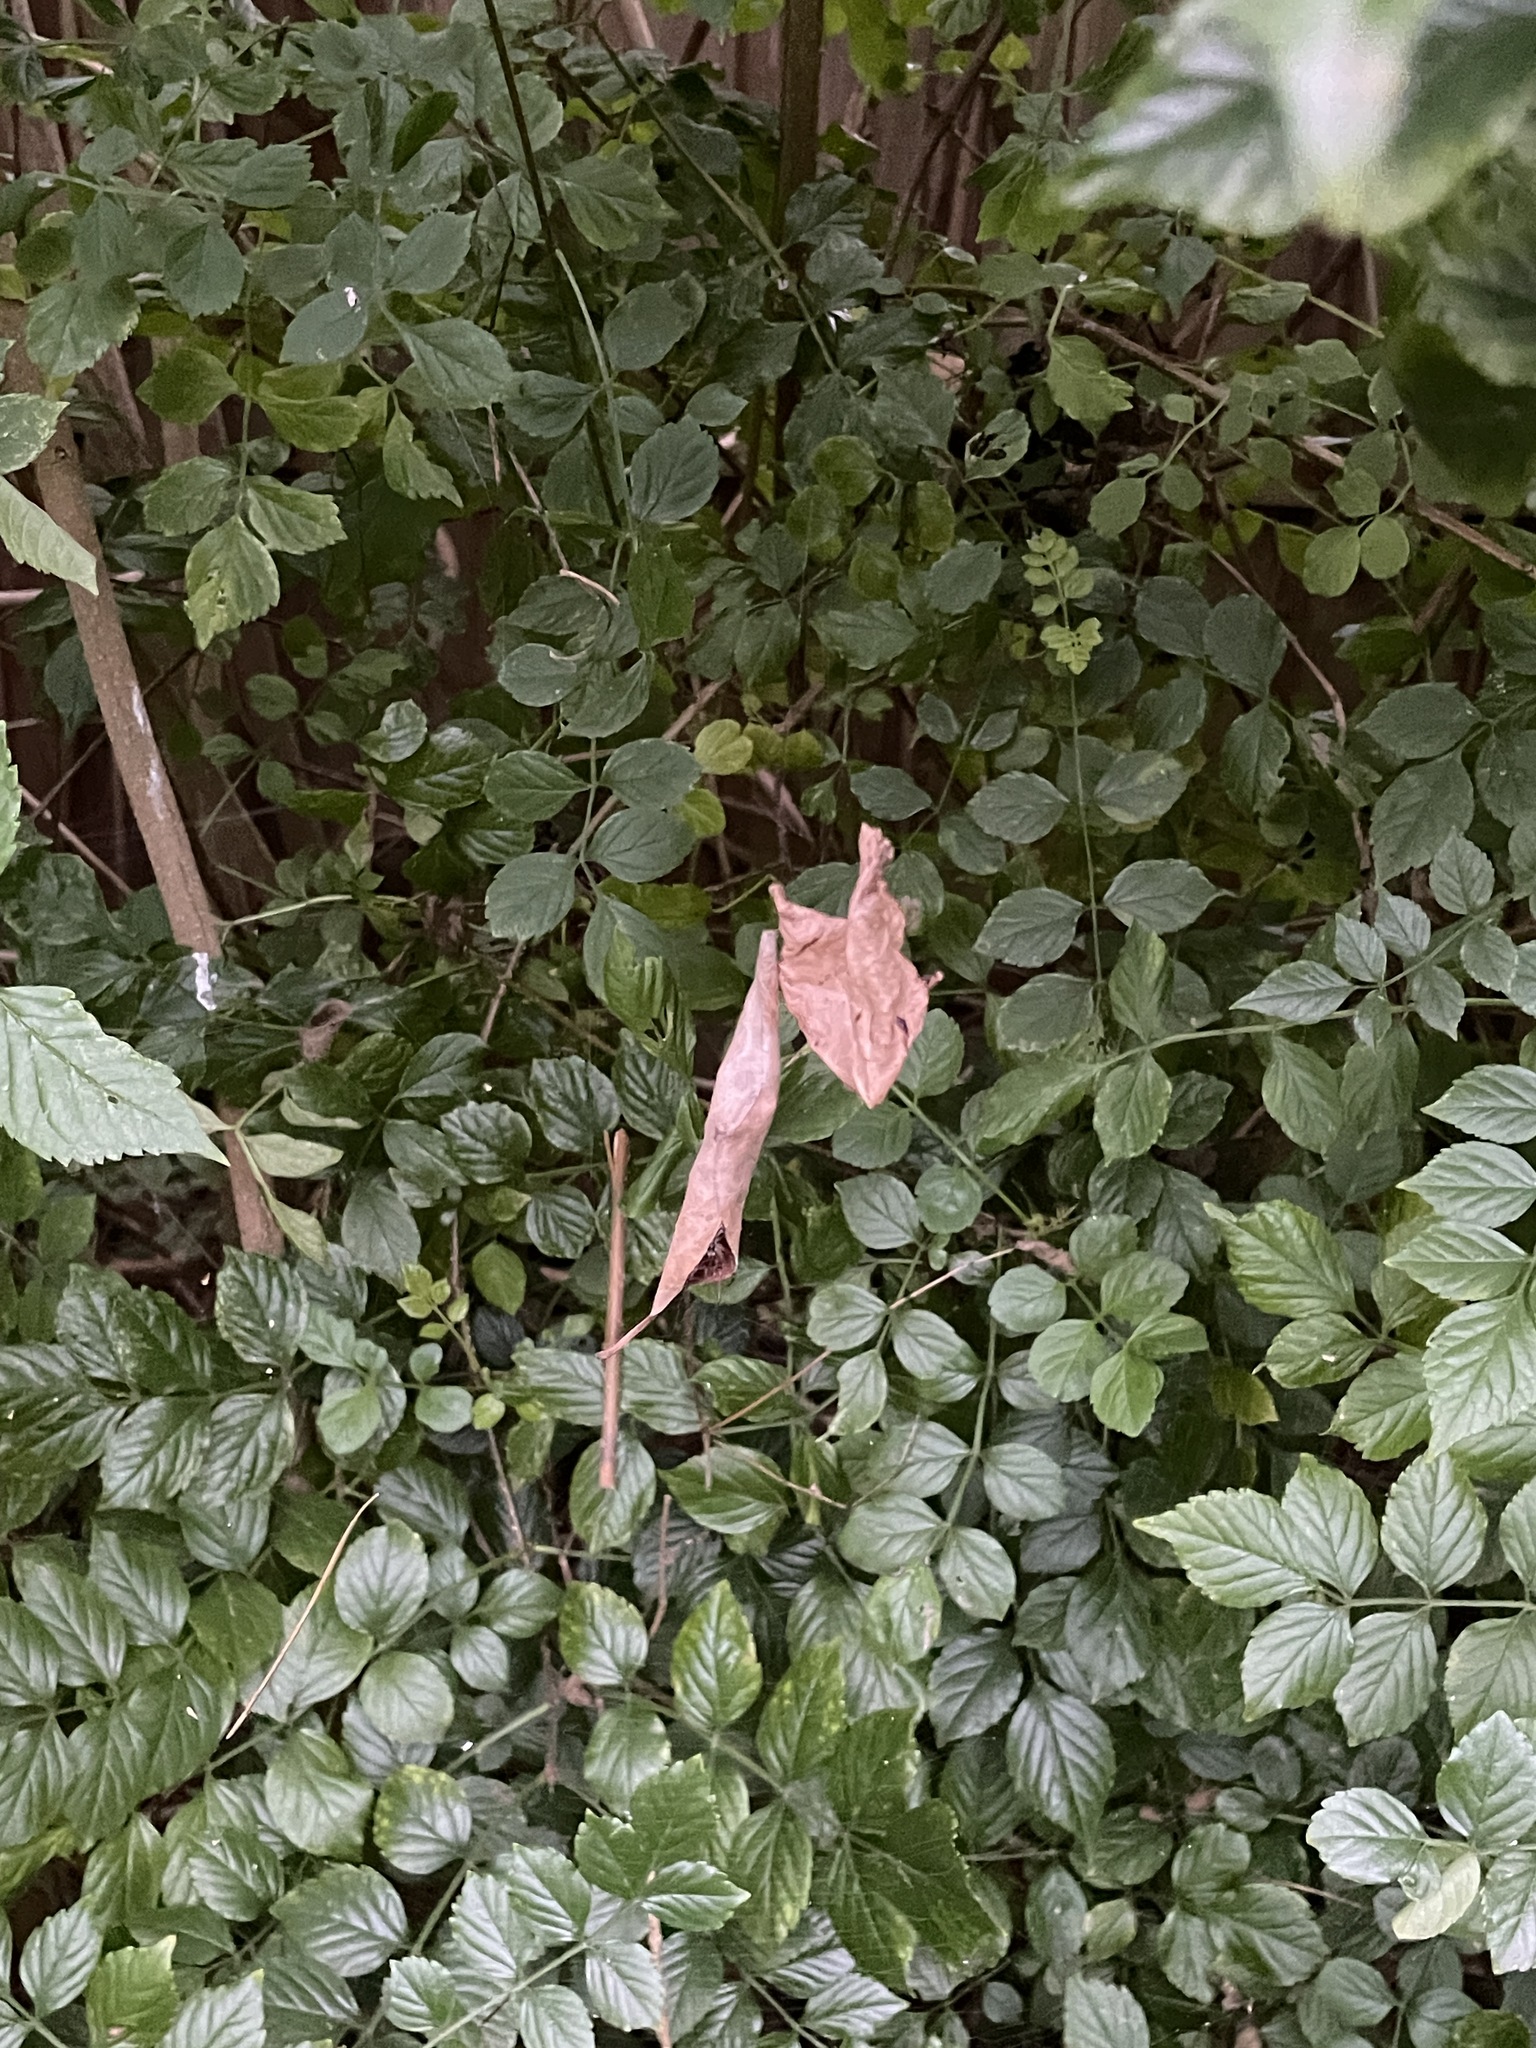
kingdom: Animalia
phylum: Arthropoda
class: Arachnida
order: Araneae
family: Araneidae
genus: Phonognatha
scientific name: Phonognatha graeffei
